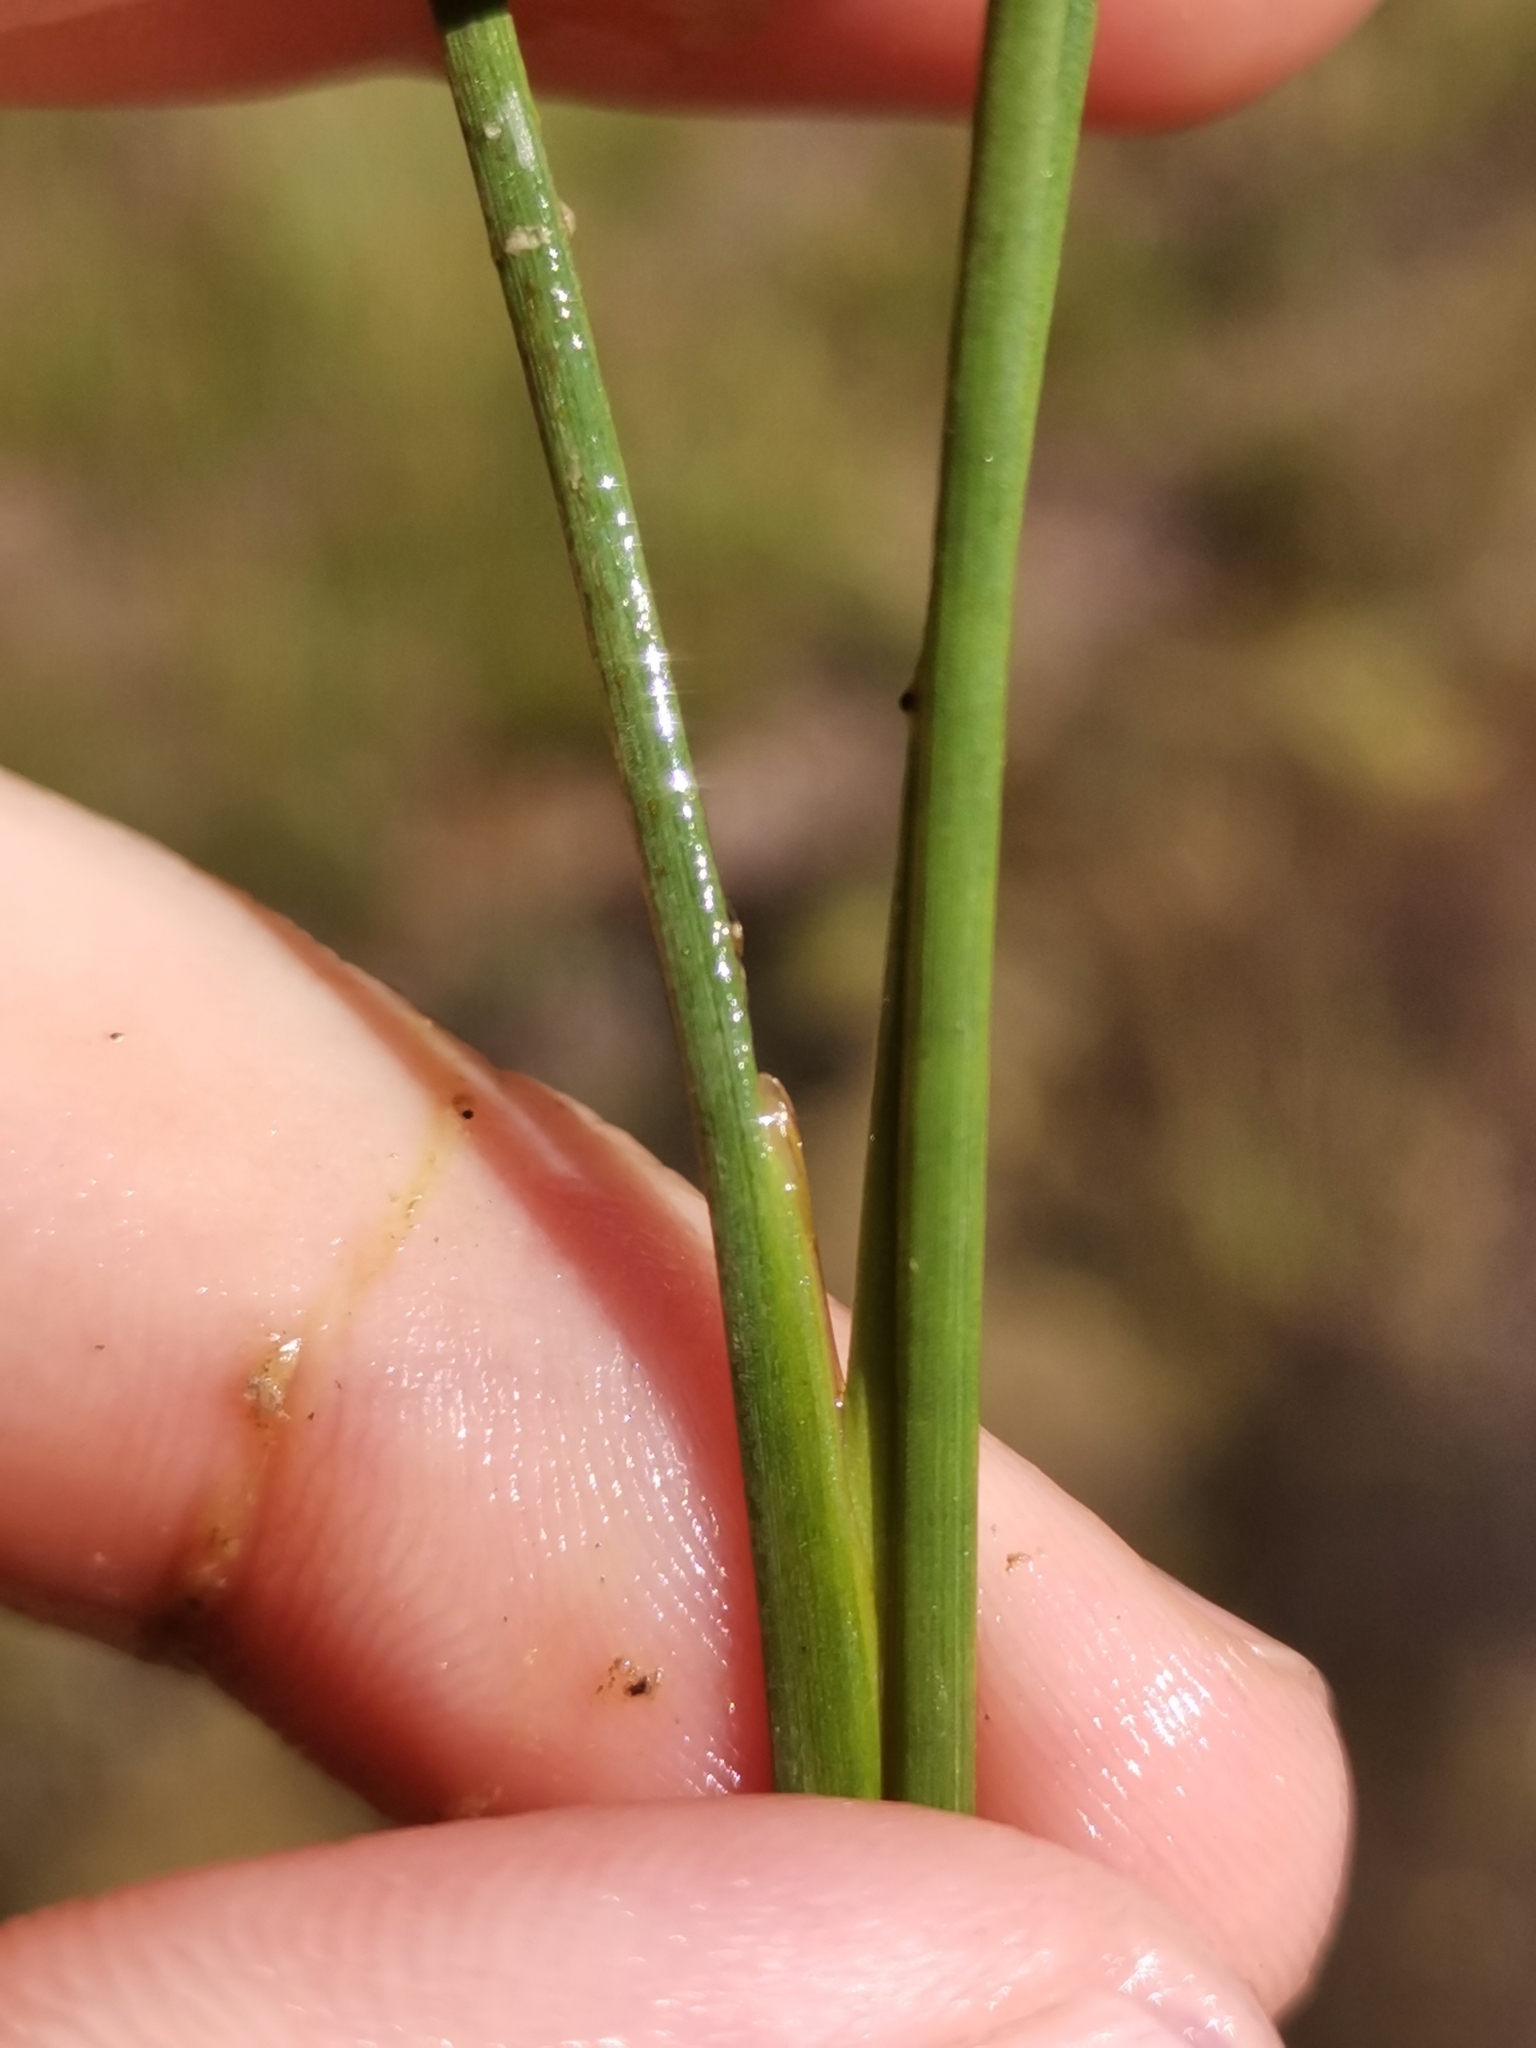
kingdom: Plantae
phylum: Tracheophyta
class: Liliopsida
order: Poales
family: Juncaceae
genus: Juncus
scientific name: Juncus compressus
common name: Round-fruited rush
